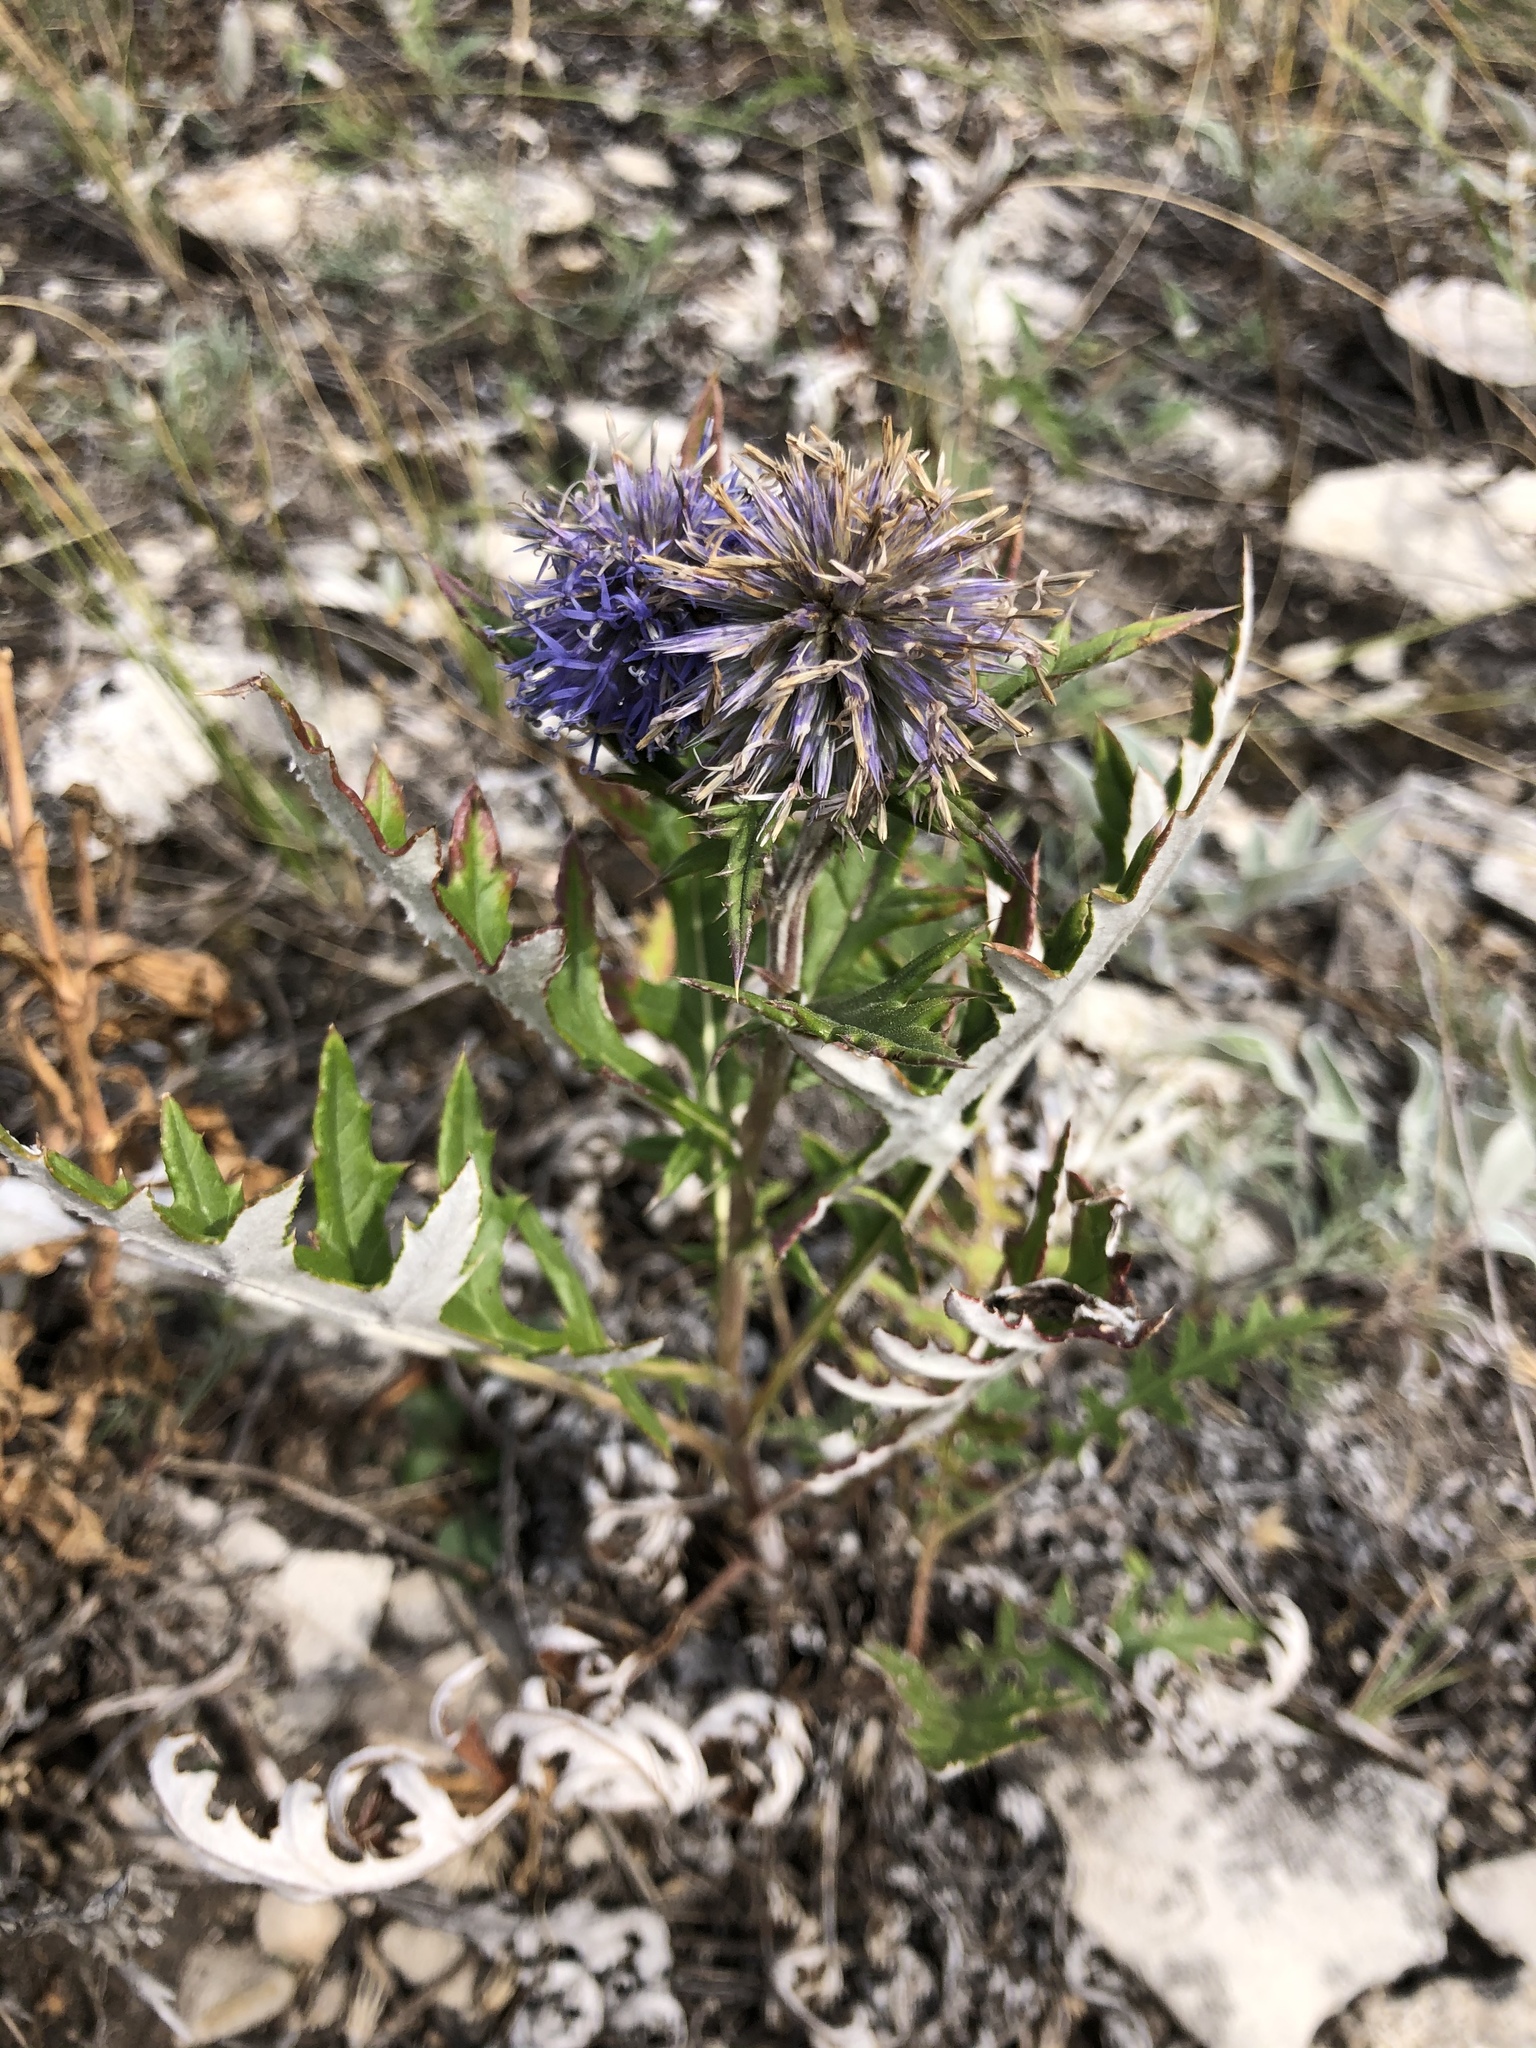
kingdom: Plantae
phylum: Tracheophyta
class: Magnoliopsida
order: Asterales
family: Asteraceae
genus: Echinops
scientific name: Echinops ritro
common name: Globe thistle
